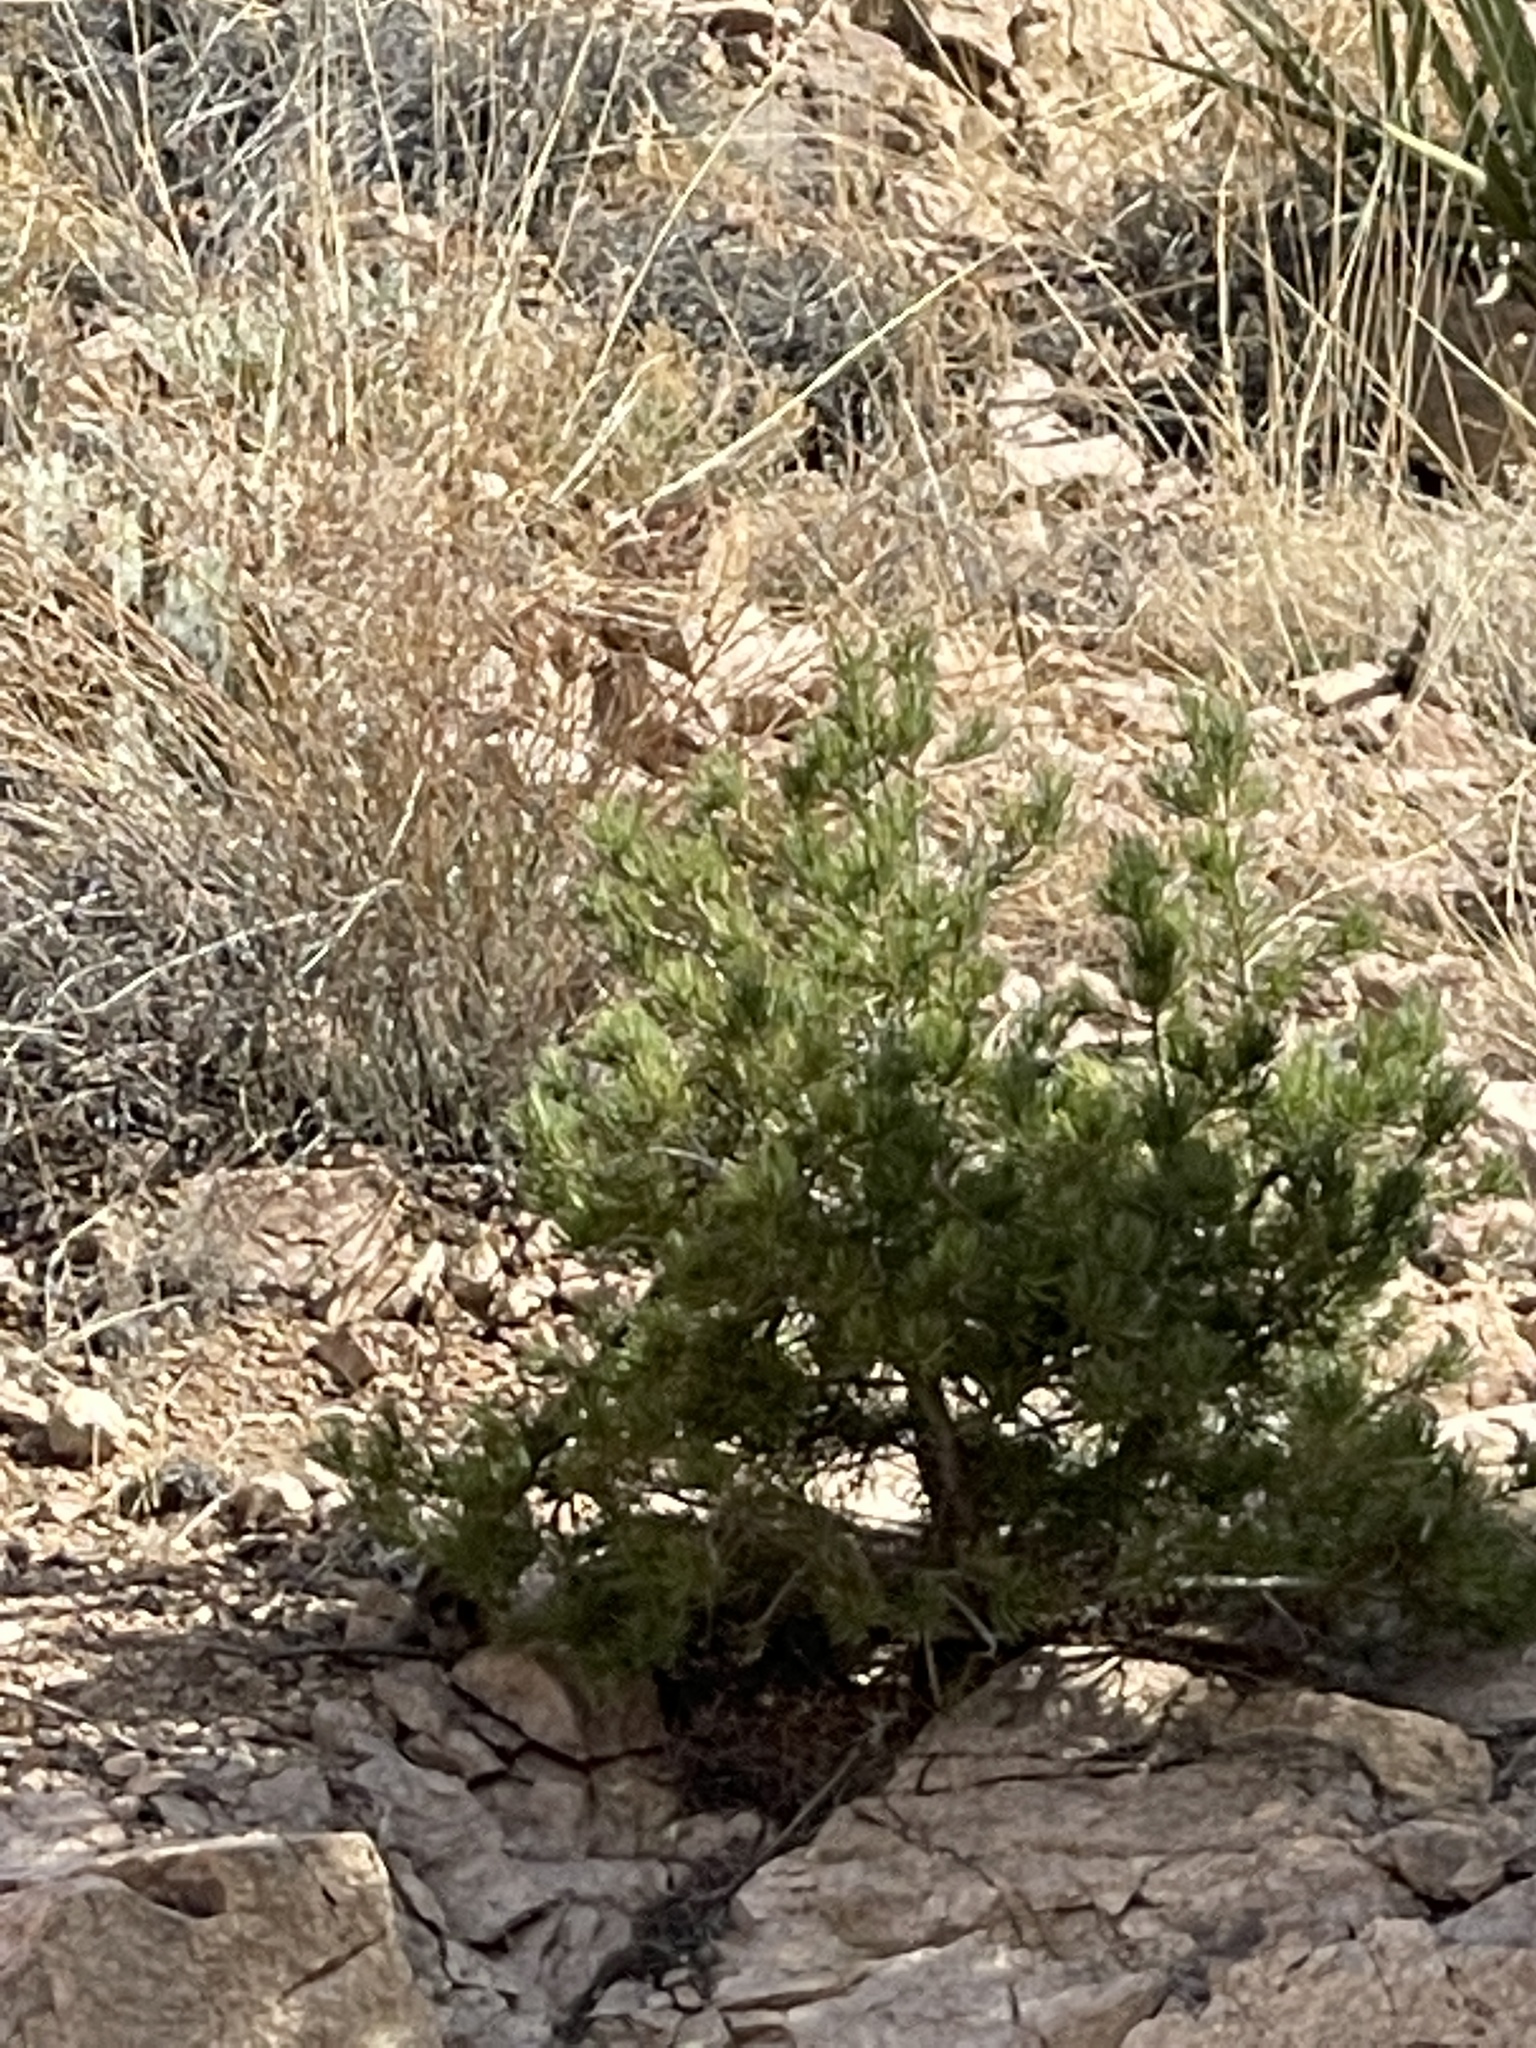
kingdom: Plantae
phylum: Tracheophyta
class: Pinopsida
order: Pinales
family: Pinaceae
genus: Pinus
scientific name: Pinus edulis
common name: Colorado pinyon
